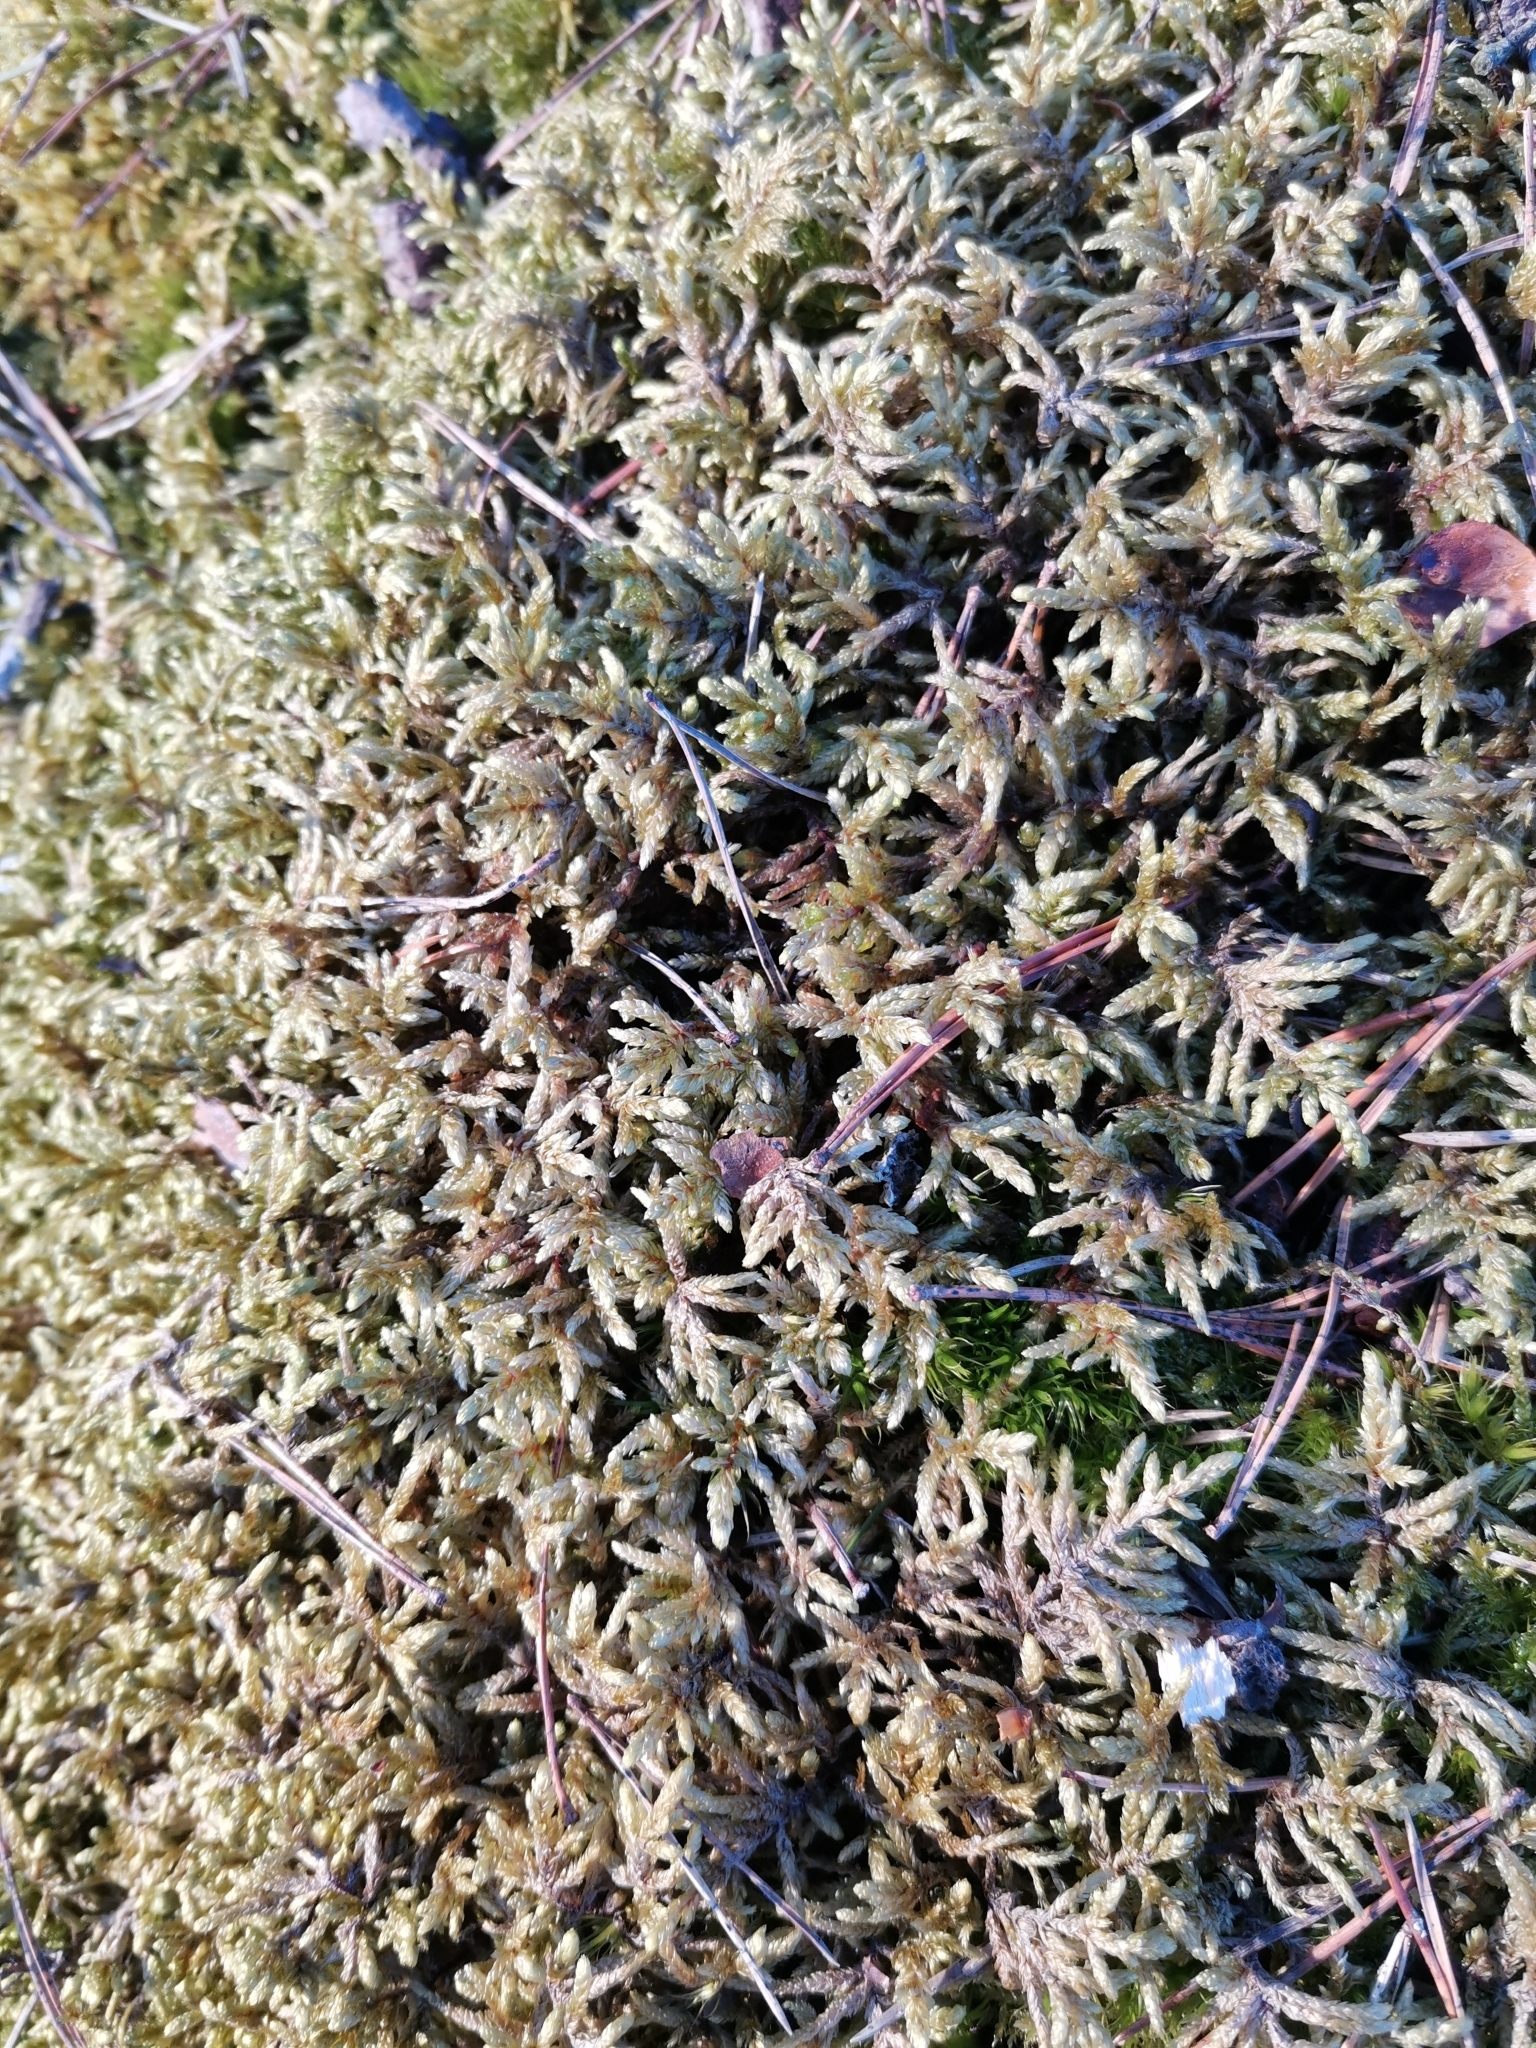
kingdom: Plantae
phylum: Bryophyta
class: Bryopsida
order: Hypnales
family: Hylocomiaceae
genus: Pleurozium
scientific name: Pleurozium schreberi
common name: Red-stemmed feather moss
